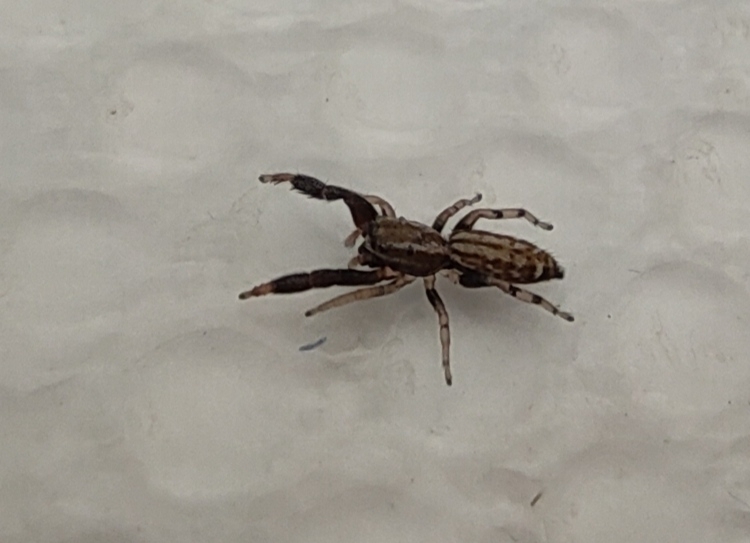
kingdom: Animalia
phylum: Arthropoda
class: Arachnida
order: Araneae
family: Salticidae
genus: Marpissa
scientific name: Marpissa nivoyi
